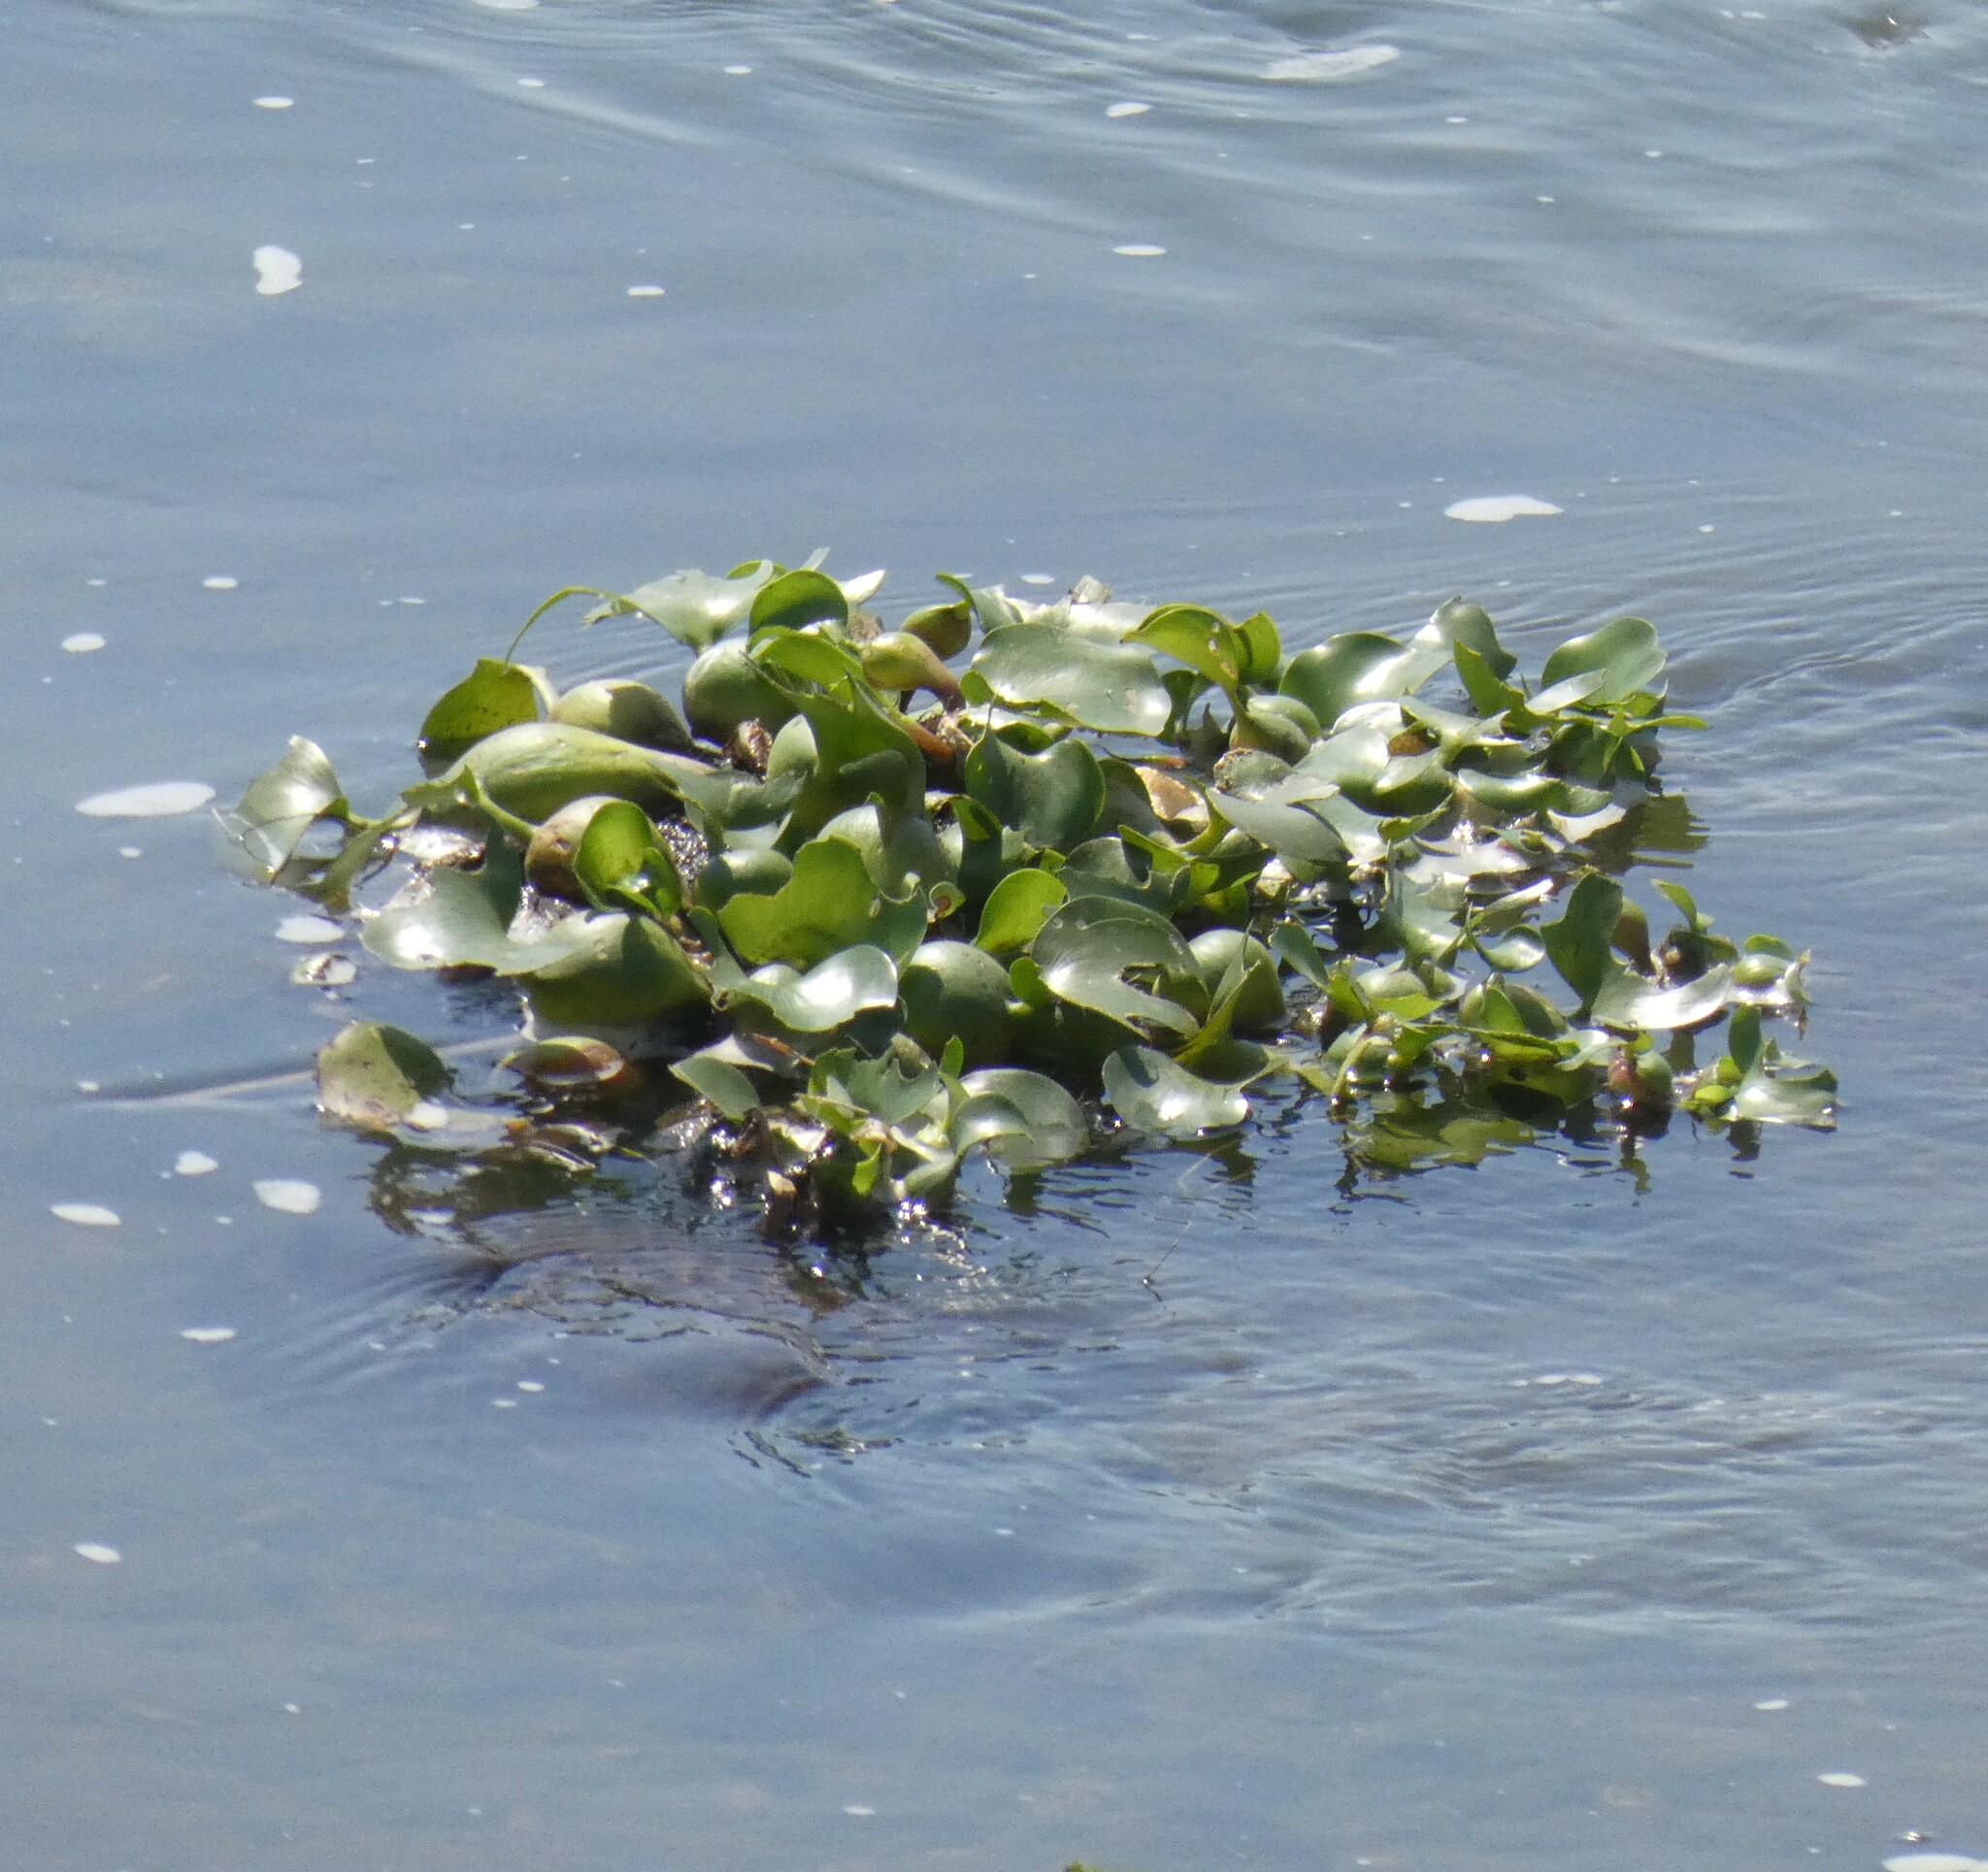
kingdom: Plantae
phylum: Tracheophyta
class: Liliopsida
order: Commelinales
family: Pontederiaceae
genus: Pontederia
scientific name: Pontederia crassipes
